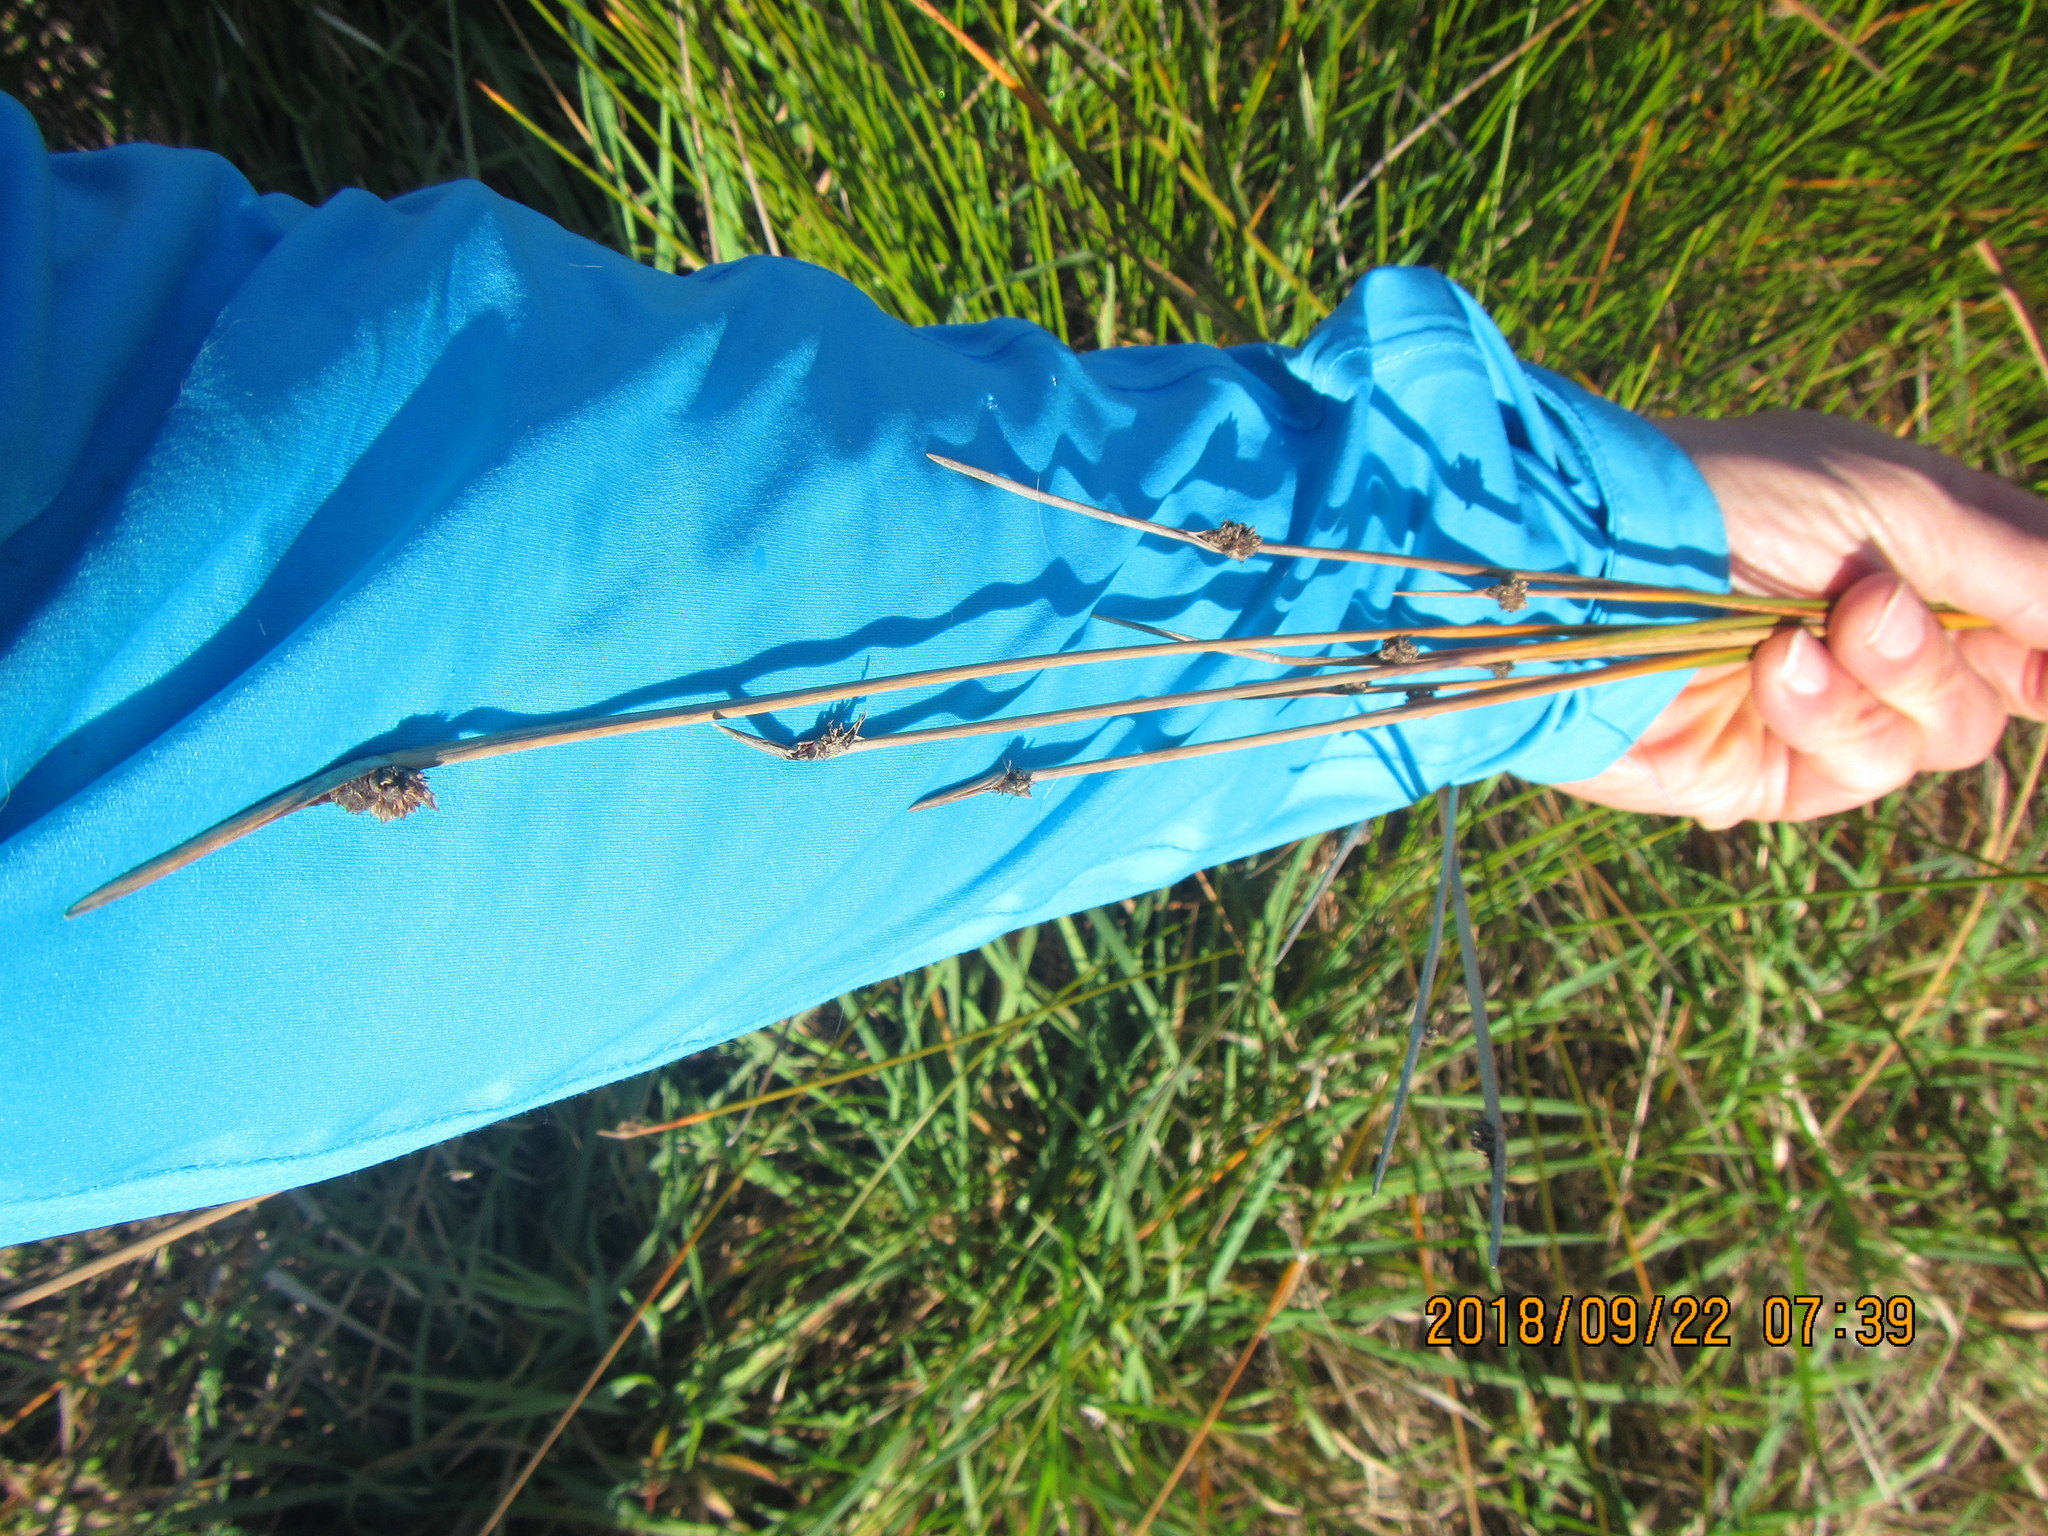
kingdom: Plantae
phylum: Tracheophyta
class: Liliopsida
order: Poales
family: Cyperaceae
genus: Ficinia
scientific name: Ficinia nodosa
